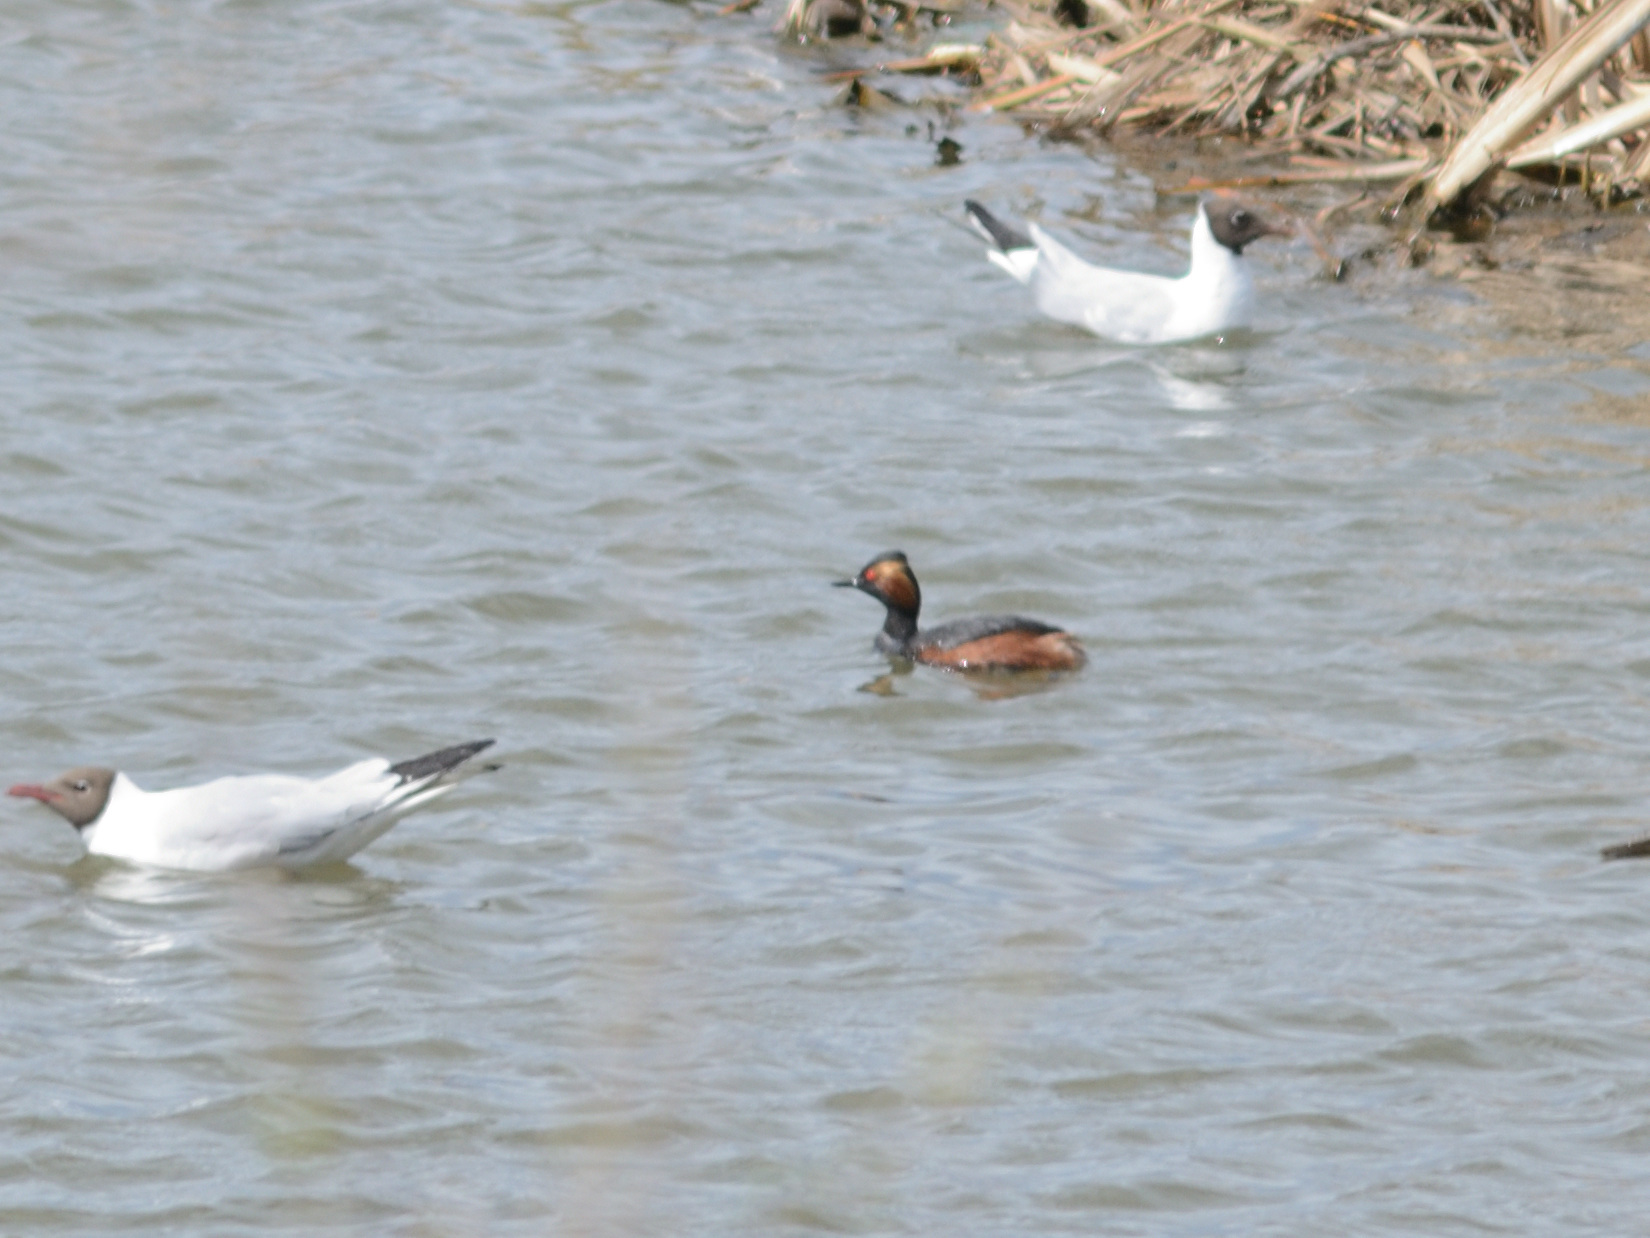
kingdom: Animalia
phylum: Chordata
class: Aves
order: Podicipediformes
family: Podicipedidae
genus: Podiceps
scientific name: Podiceps nigricollis
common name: Black-necked grebe
